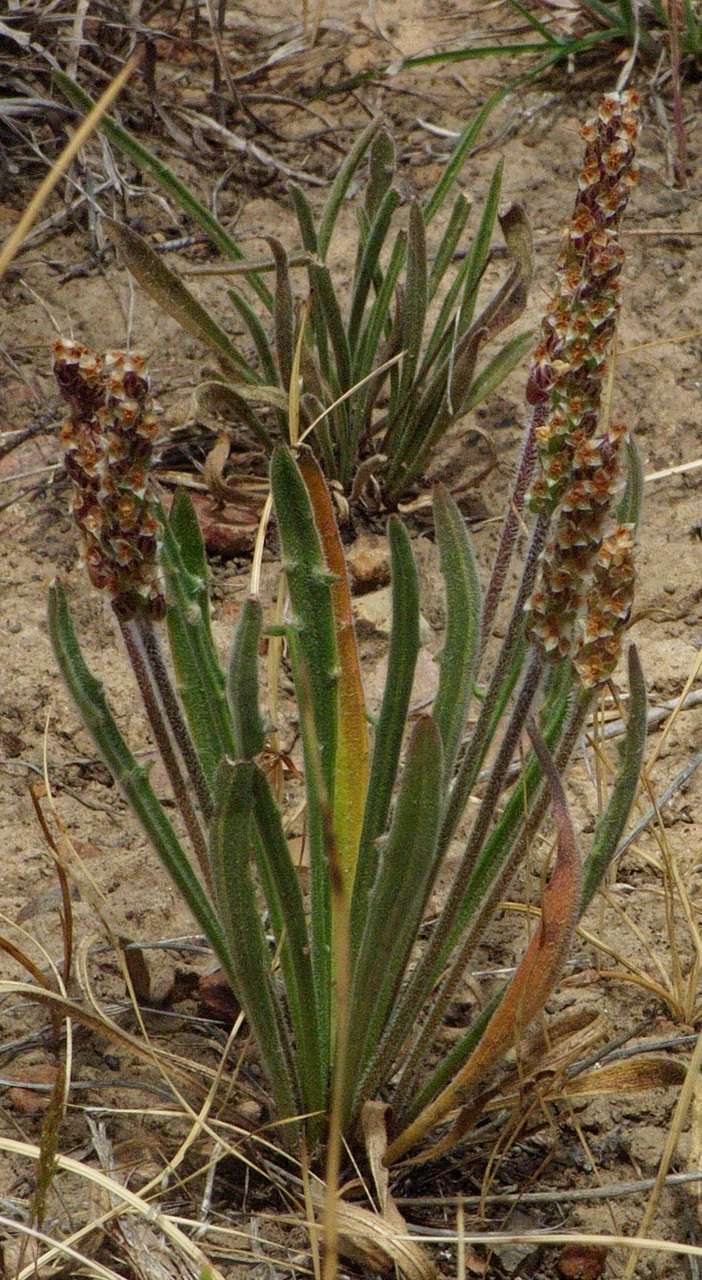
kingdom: Plantae
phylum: Tracheophyta
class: Magnoliopsida
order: Lamiales
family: Plantaginaceae
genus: Plantago
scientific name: Plantago gaudichaudii
